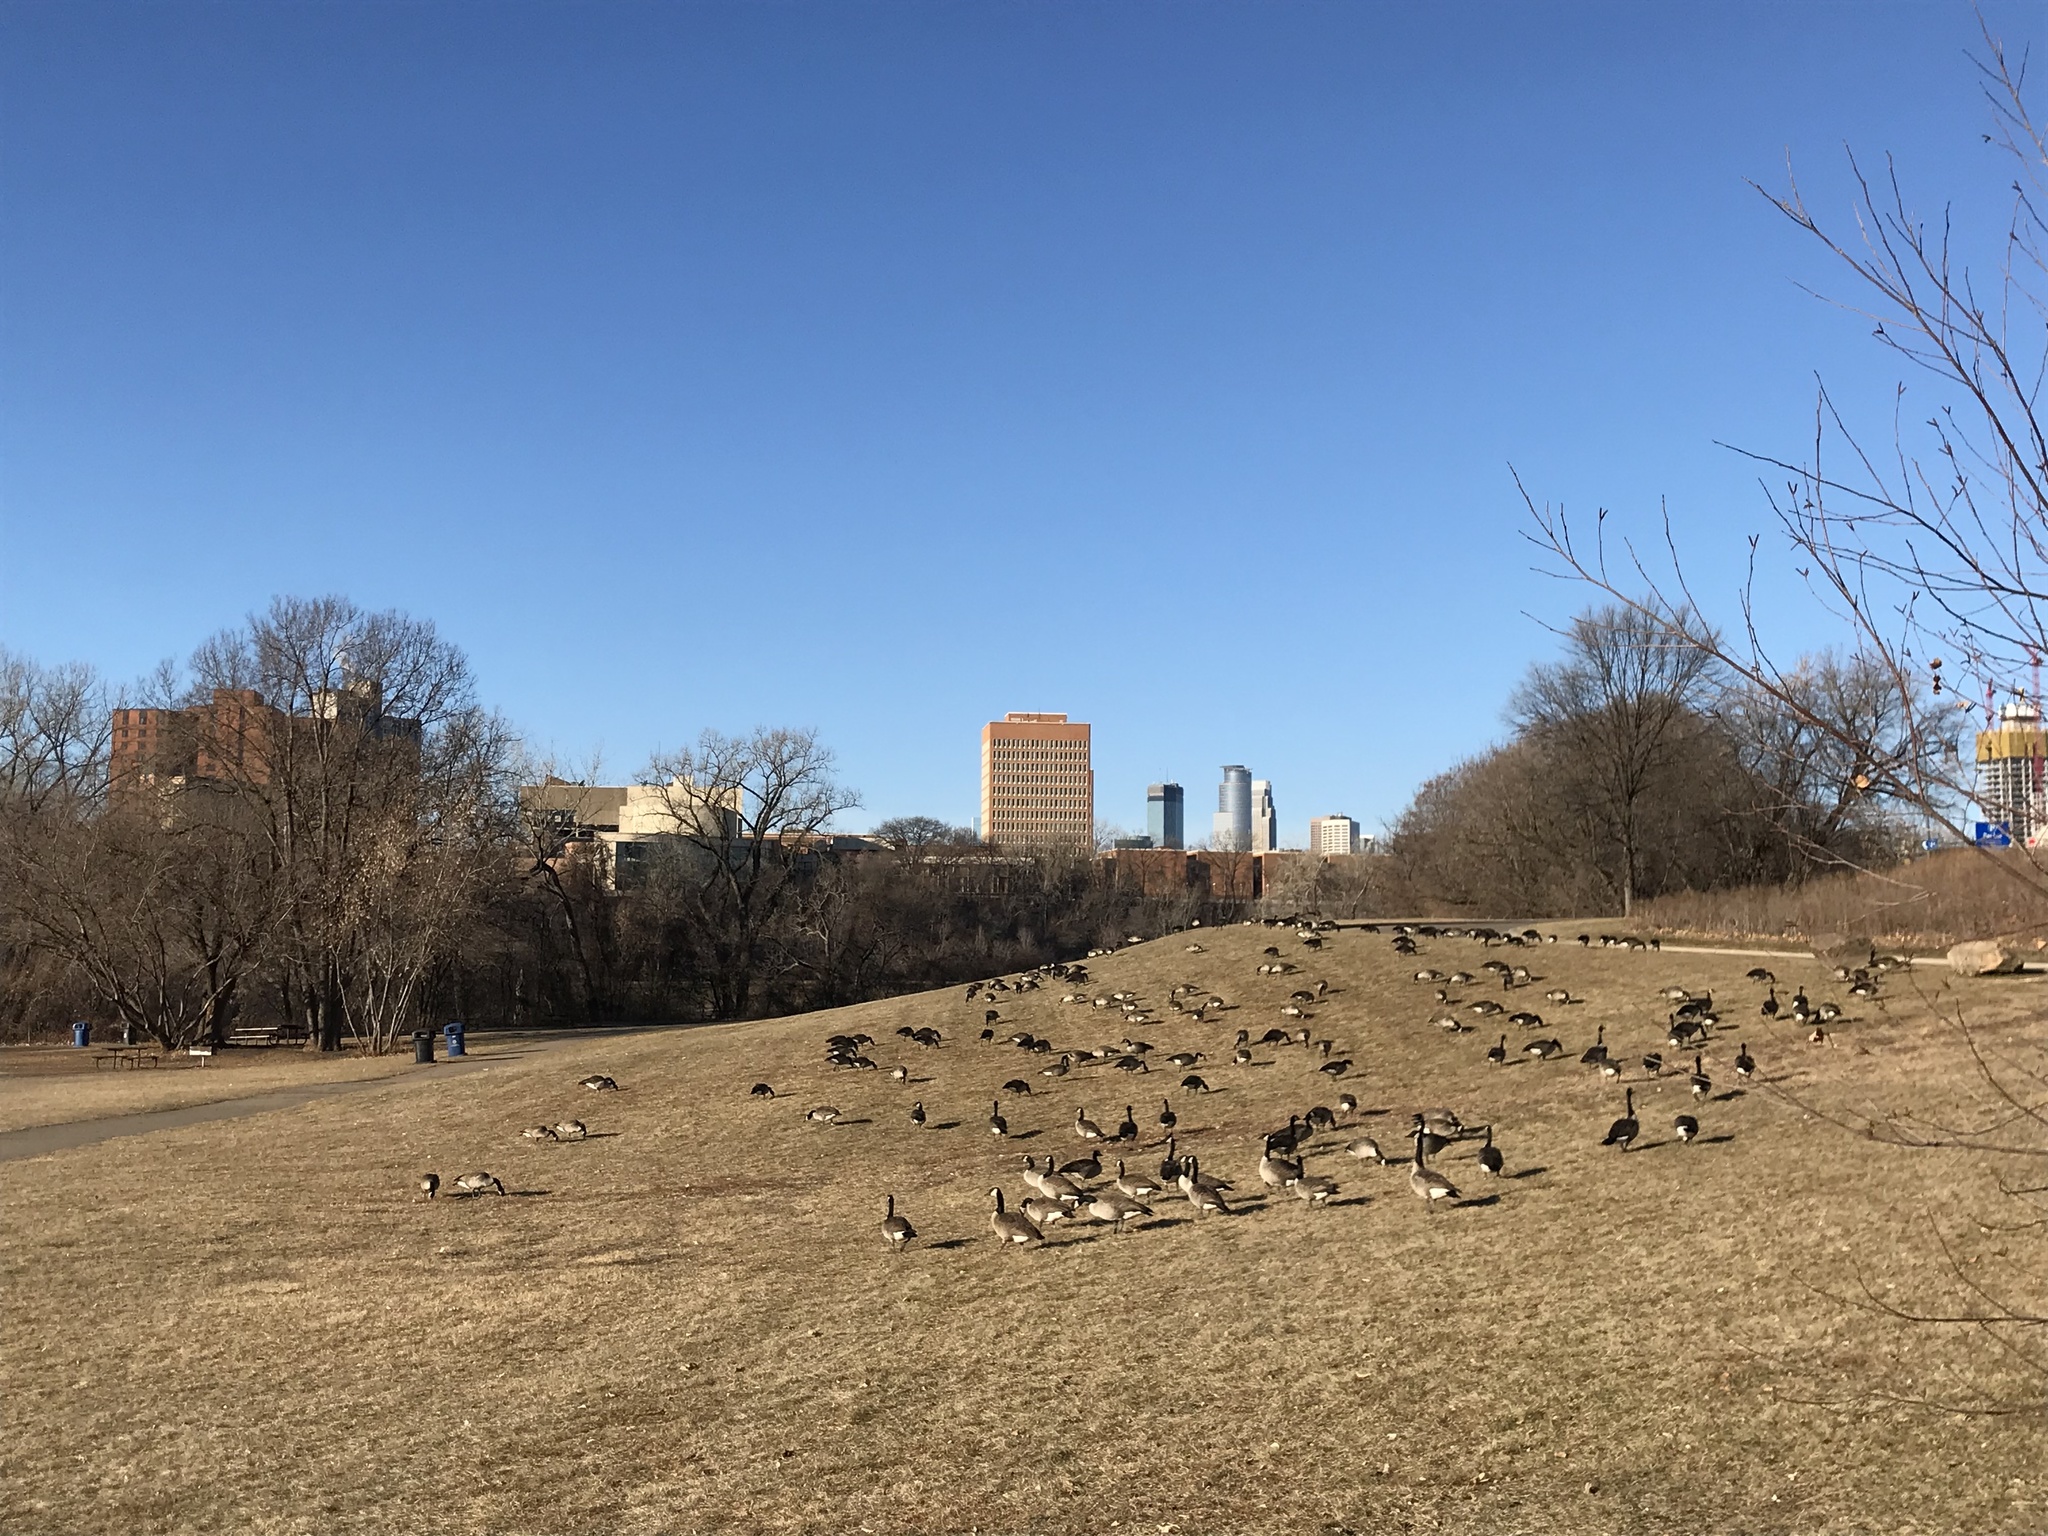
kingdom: Animalia
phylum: Chordata
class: Aves
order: Anseriformes
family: Anatidae
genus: Branta
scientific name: Branta canadensis
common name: Canada goose
